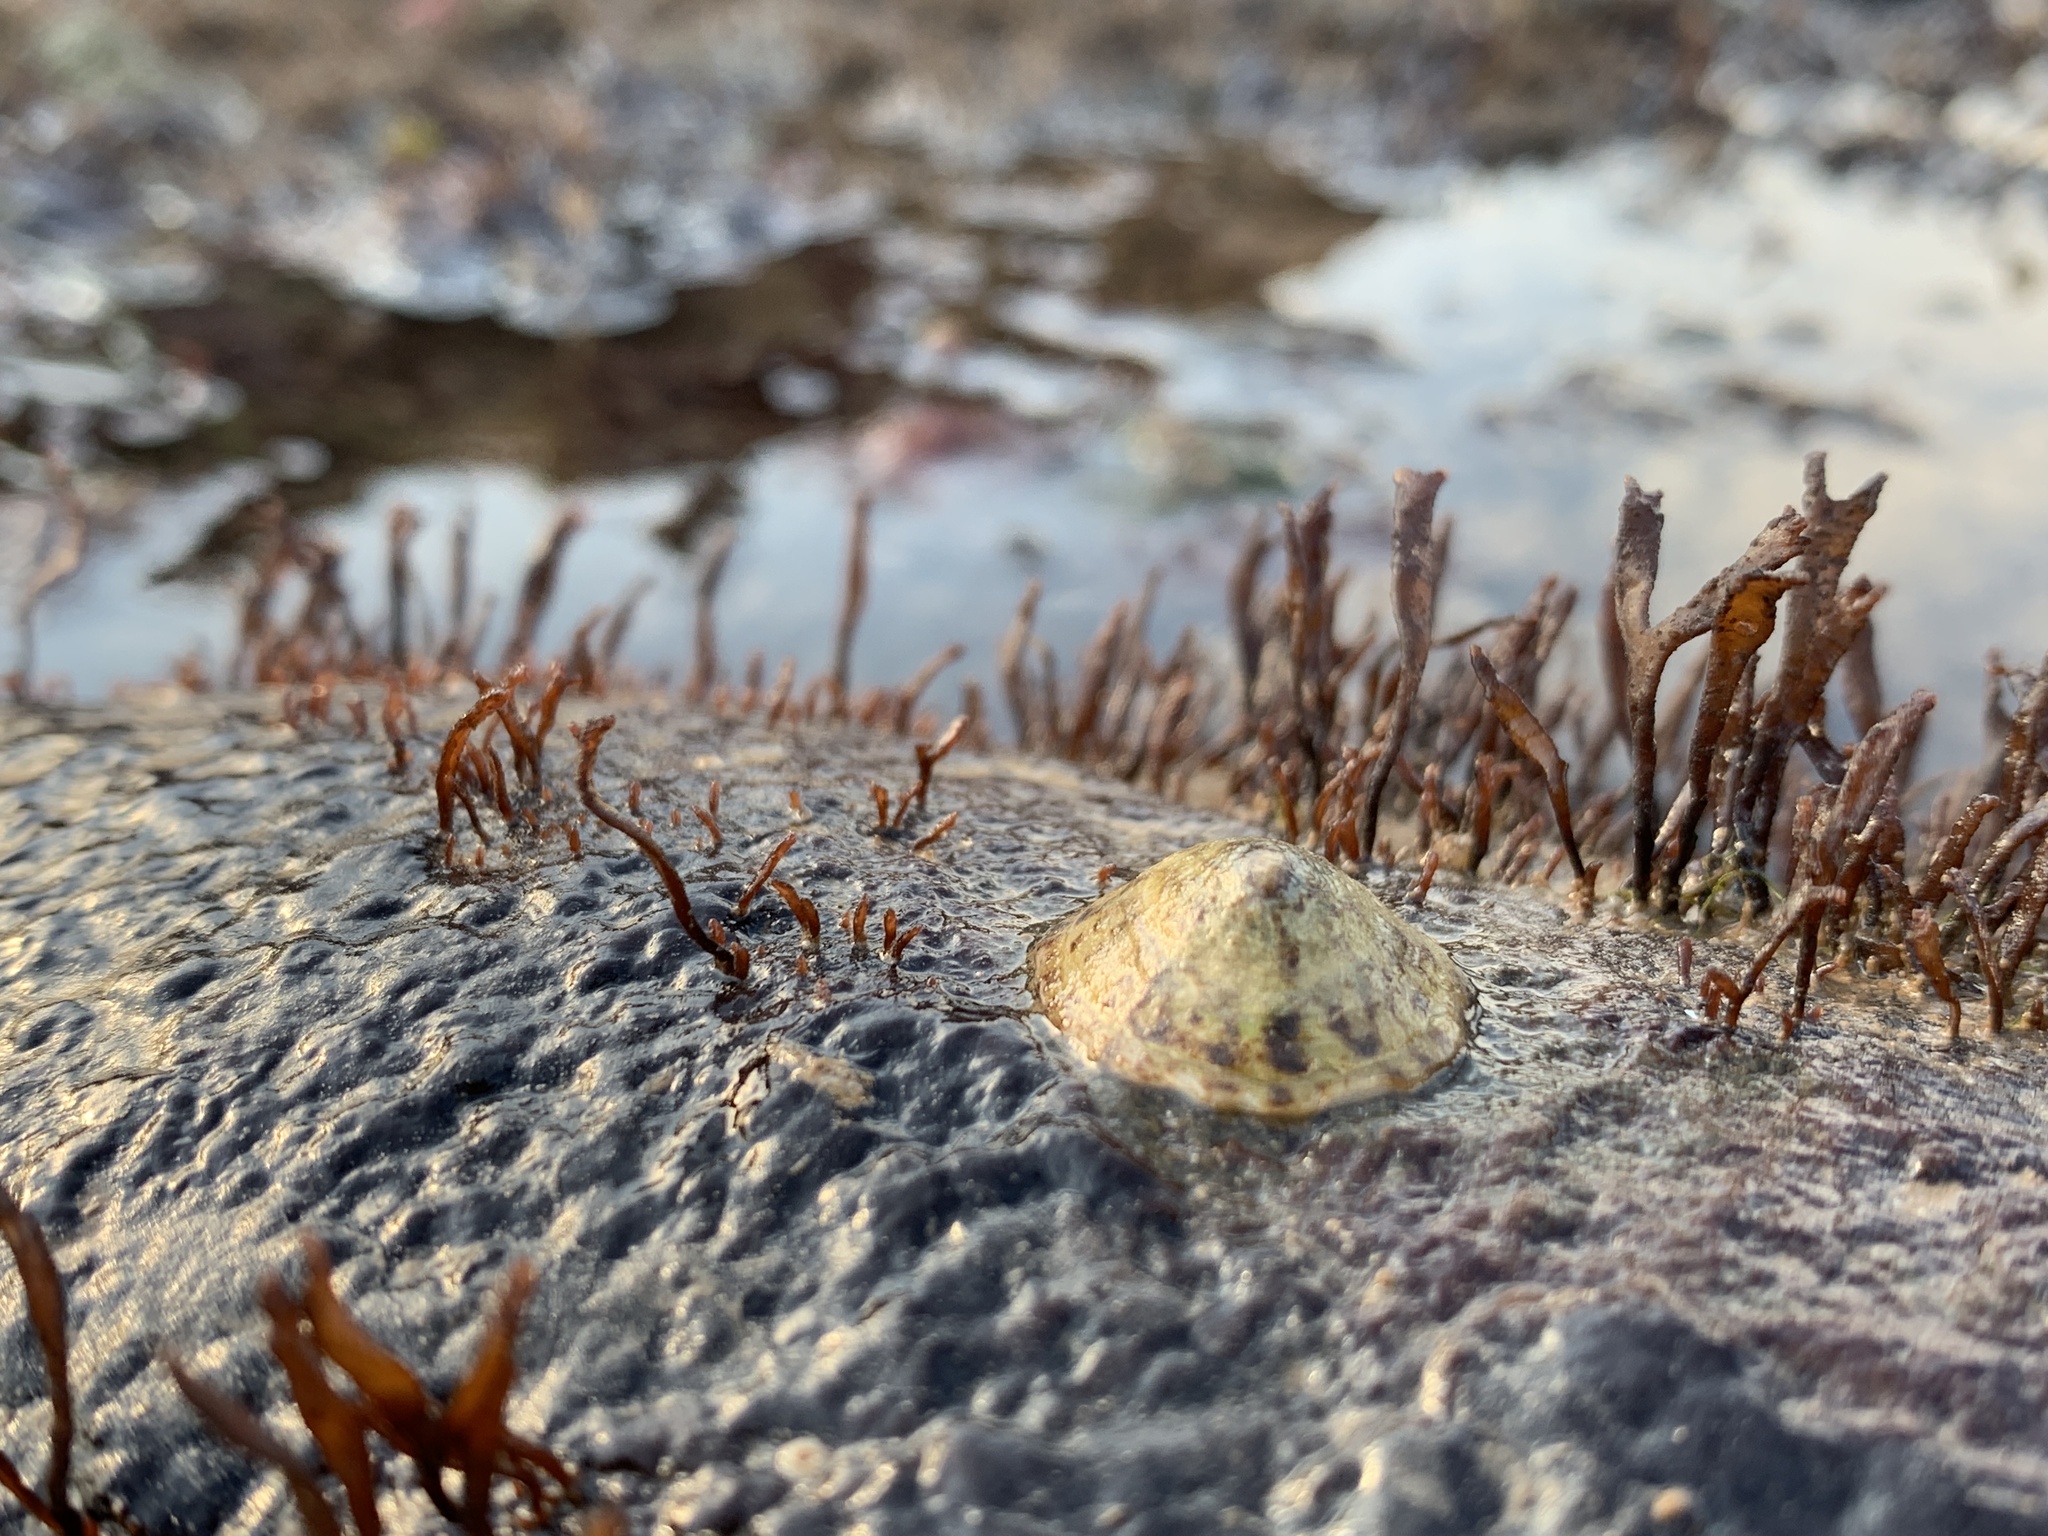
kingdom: Animalia
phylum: Mollusca
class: Gastropoda
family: Lottiidae
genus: Testudinalia
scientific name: Testudinalia testudinalis
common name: Common tortoiseshell limpet
